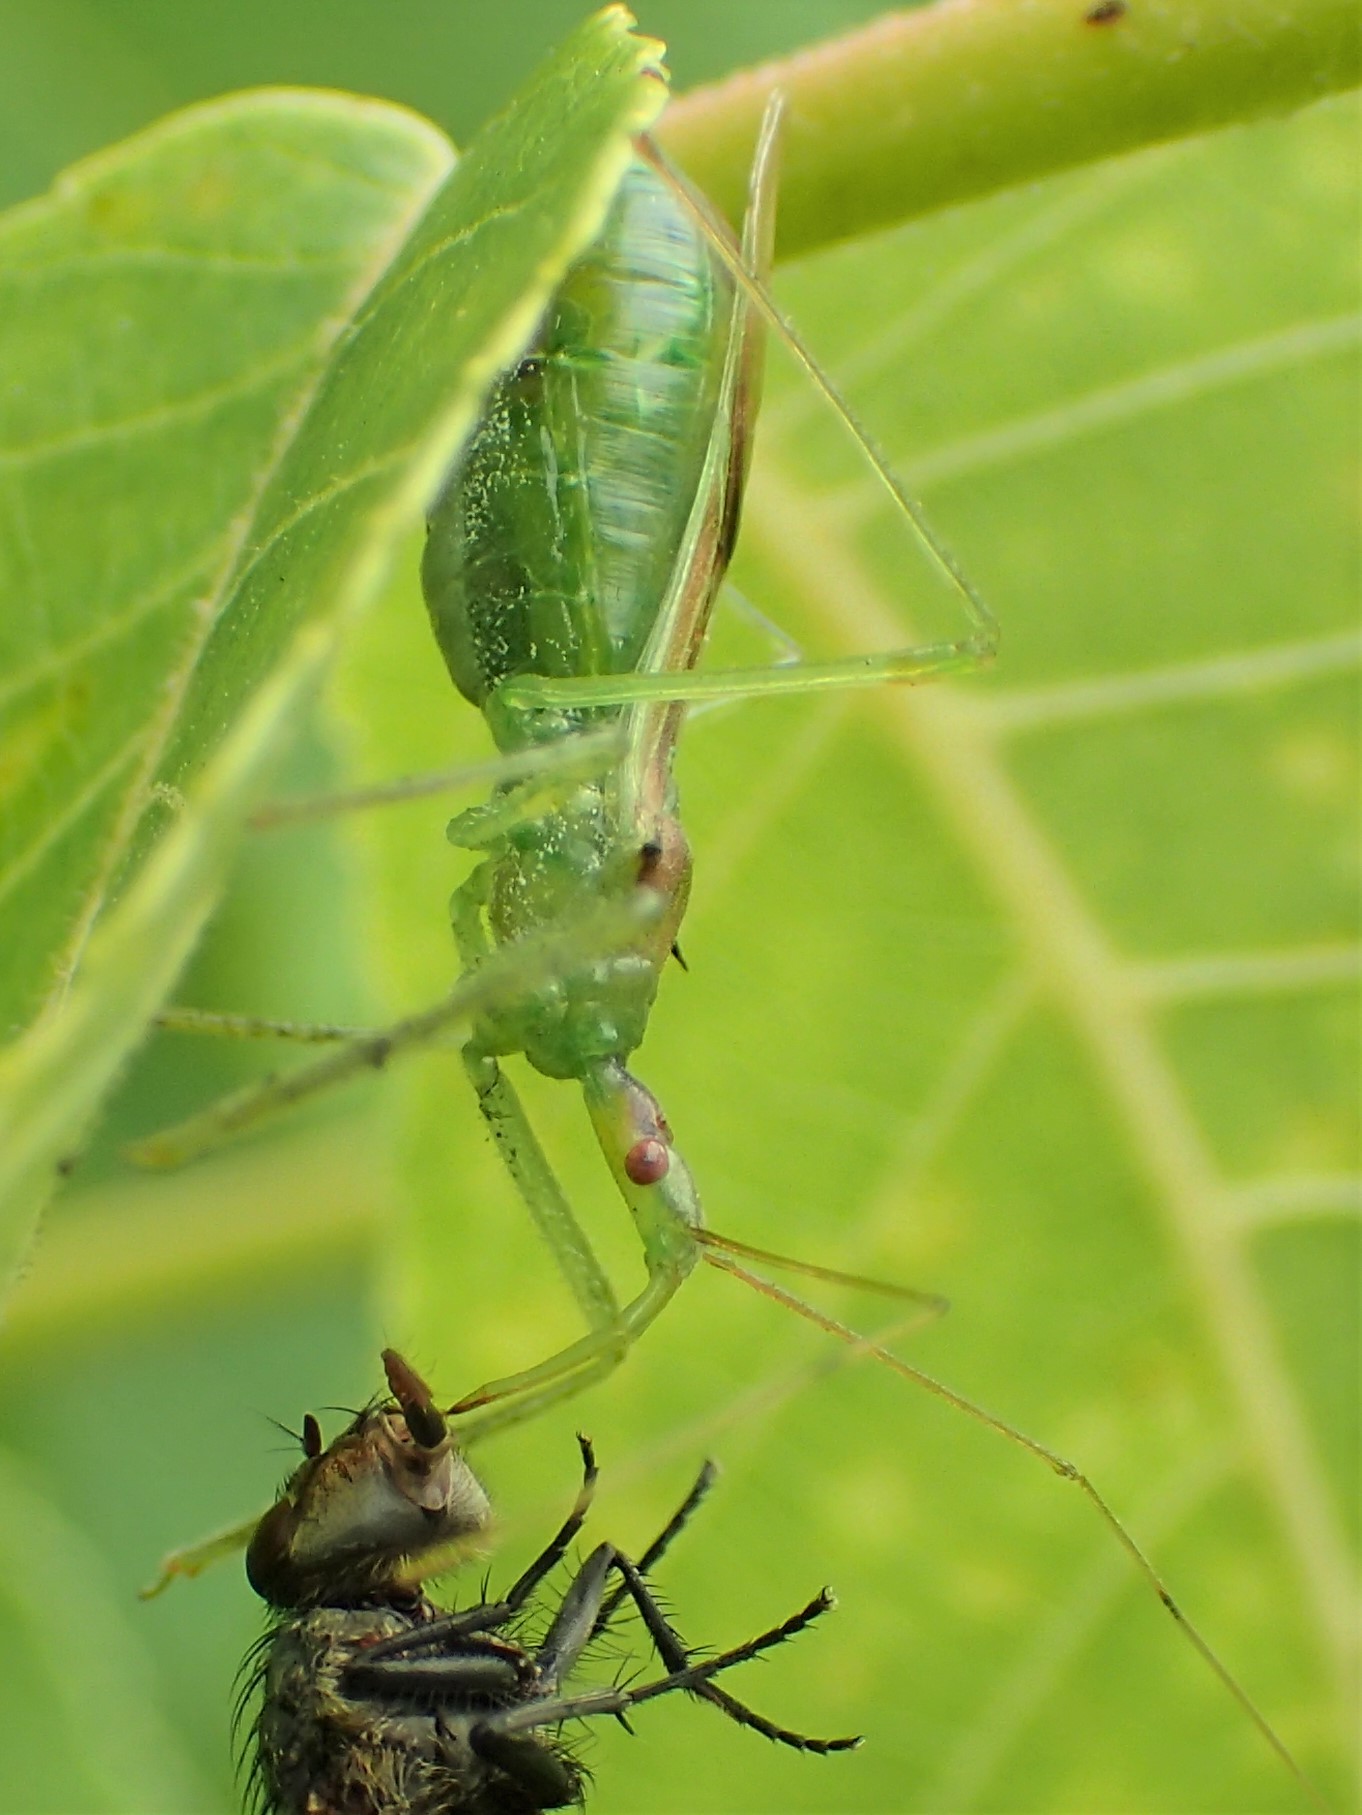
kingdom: Animalia
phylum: Arthropoda
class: Insecta
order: Hemiptera
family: Reduviidae
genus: Zelus
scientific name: Zelus luridus
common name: Pale green assassin bug
